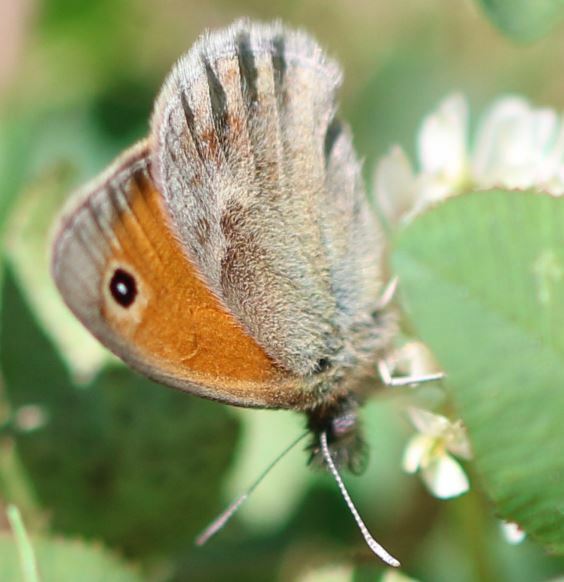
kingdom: Animalia
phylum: Arthropoda
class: Insecta
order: Lepidoptera
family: Nymphalidae
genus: Coenonympha
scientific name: Coenonympha pamphilus
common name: Small heath
